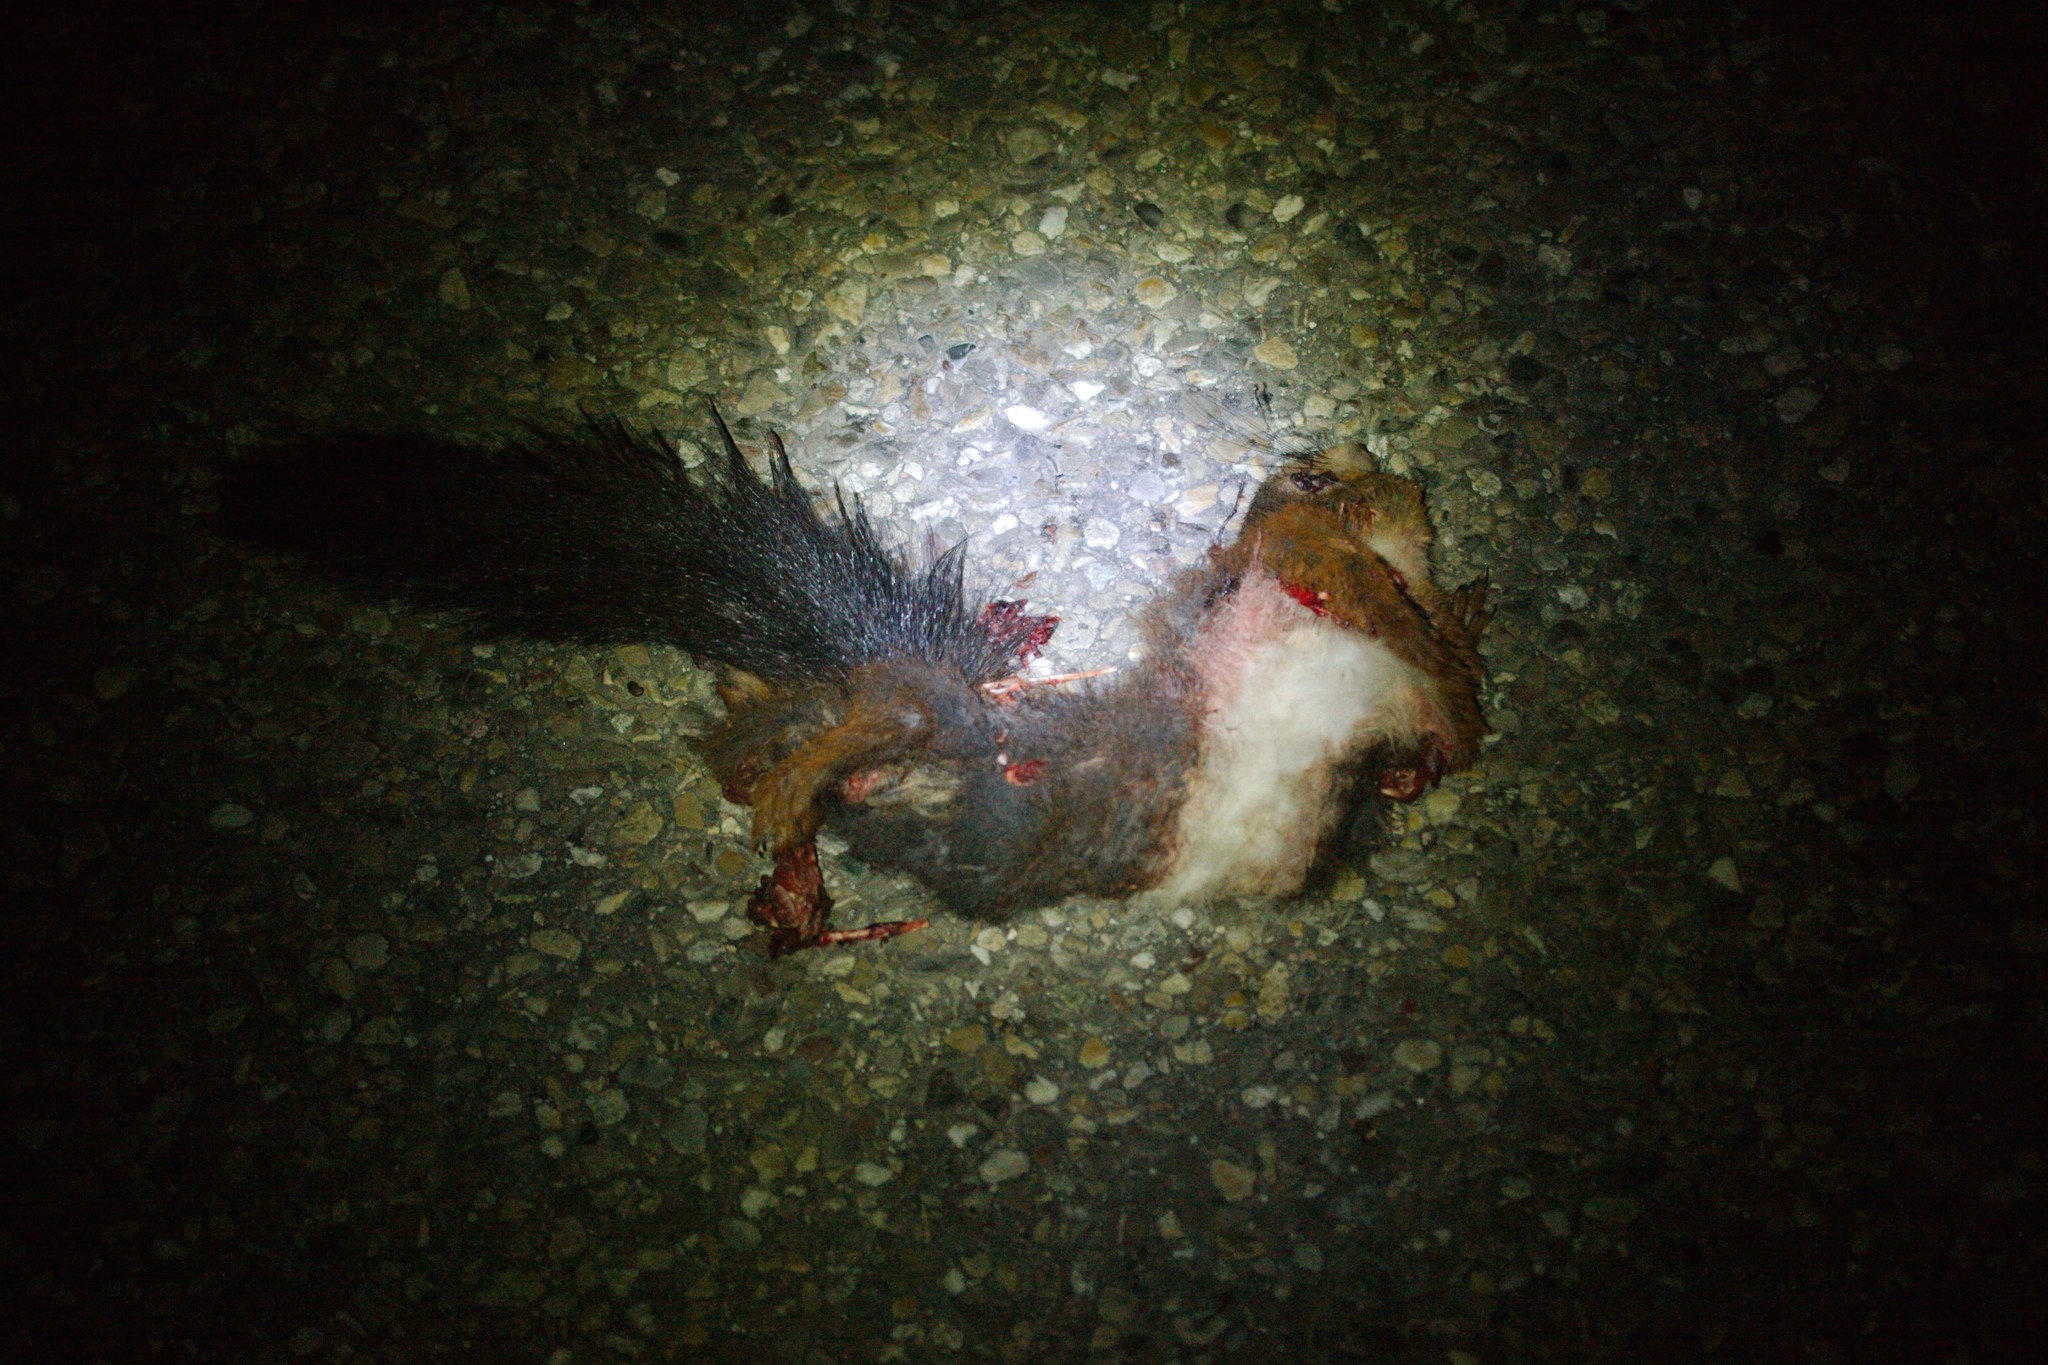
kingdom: Animalia
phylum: Chordata
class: Mammalia
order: Rodentia
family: Sciuridae
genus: Sciurus
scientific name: Sciurus vulgaris
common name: Eurasian red squirrel
